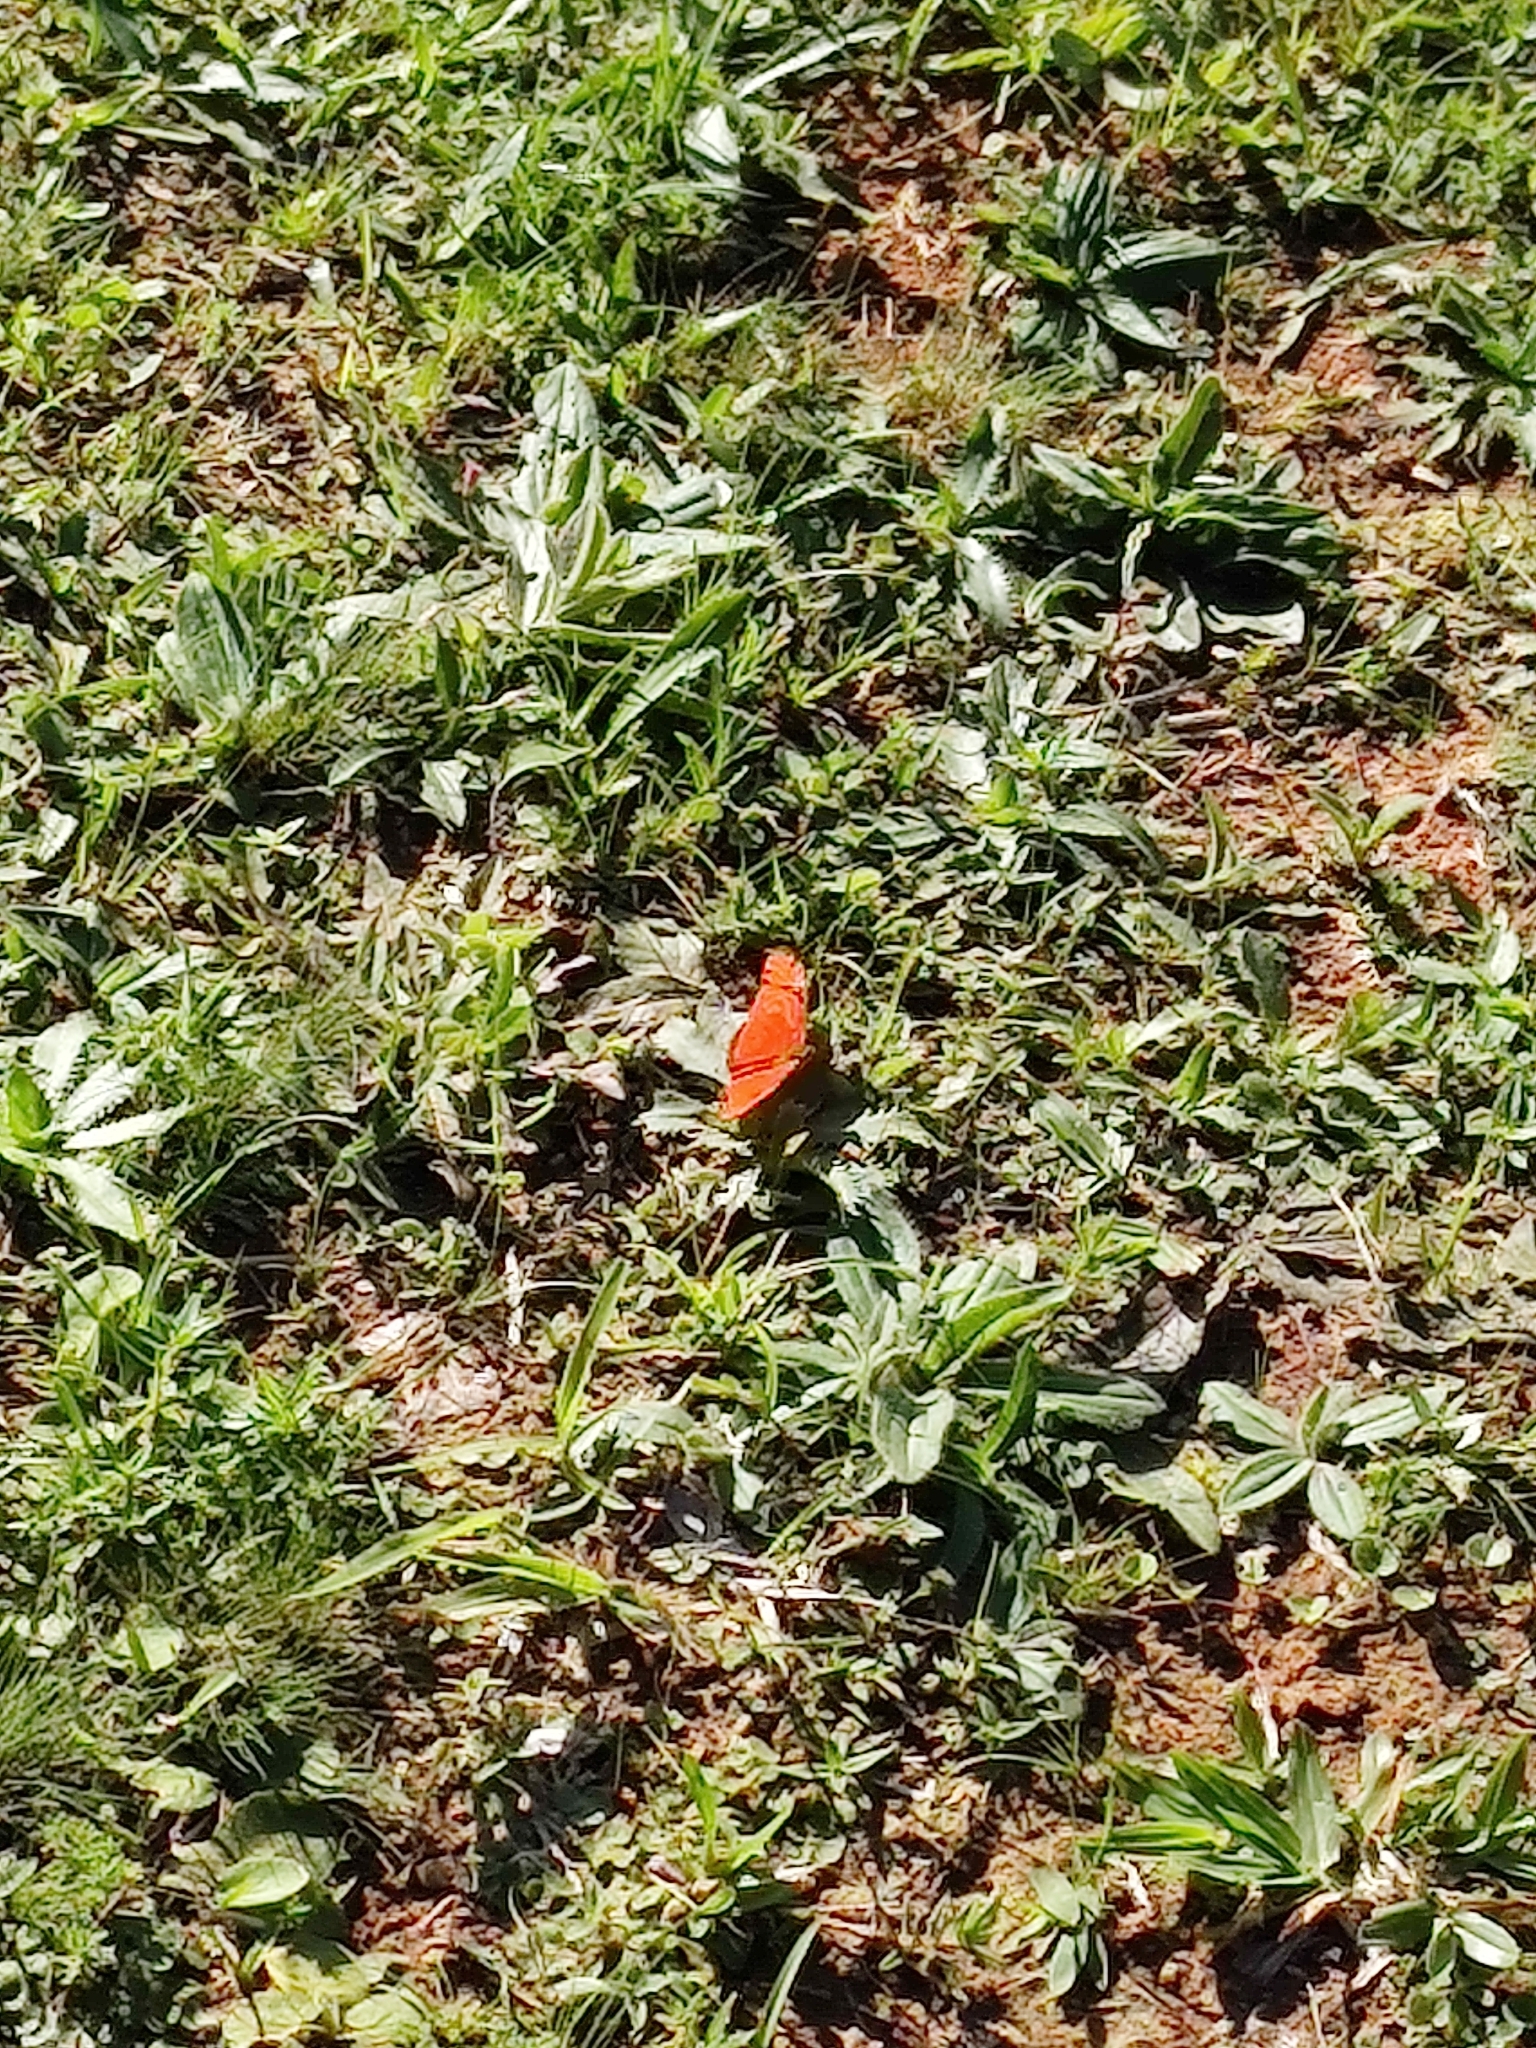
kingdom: Animalia
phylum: Arthropoda
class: Insecta
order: Lepidoptera
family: Nymphalidae
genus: Dryas
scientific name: Dryas iulia
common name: Flambeau
